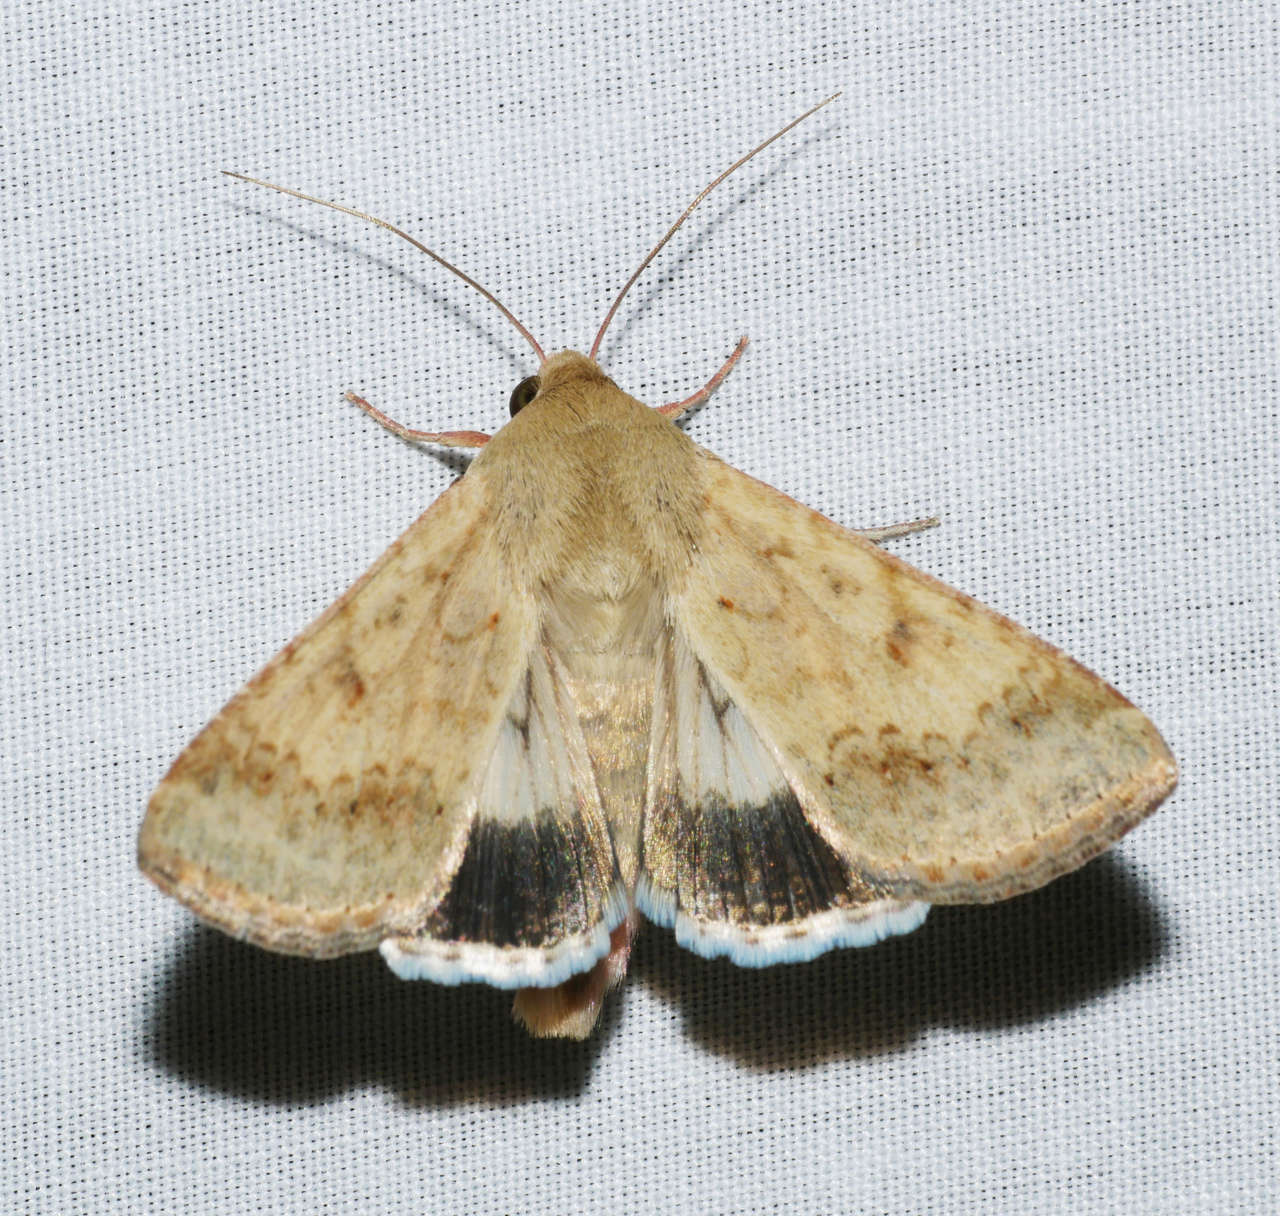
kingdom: Animalia
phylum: Arthropoda
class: Insecta
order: Lepidoptera
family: Noctuidae
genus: Helicoverpa
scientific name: Helicoverpa punctigera
